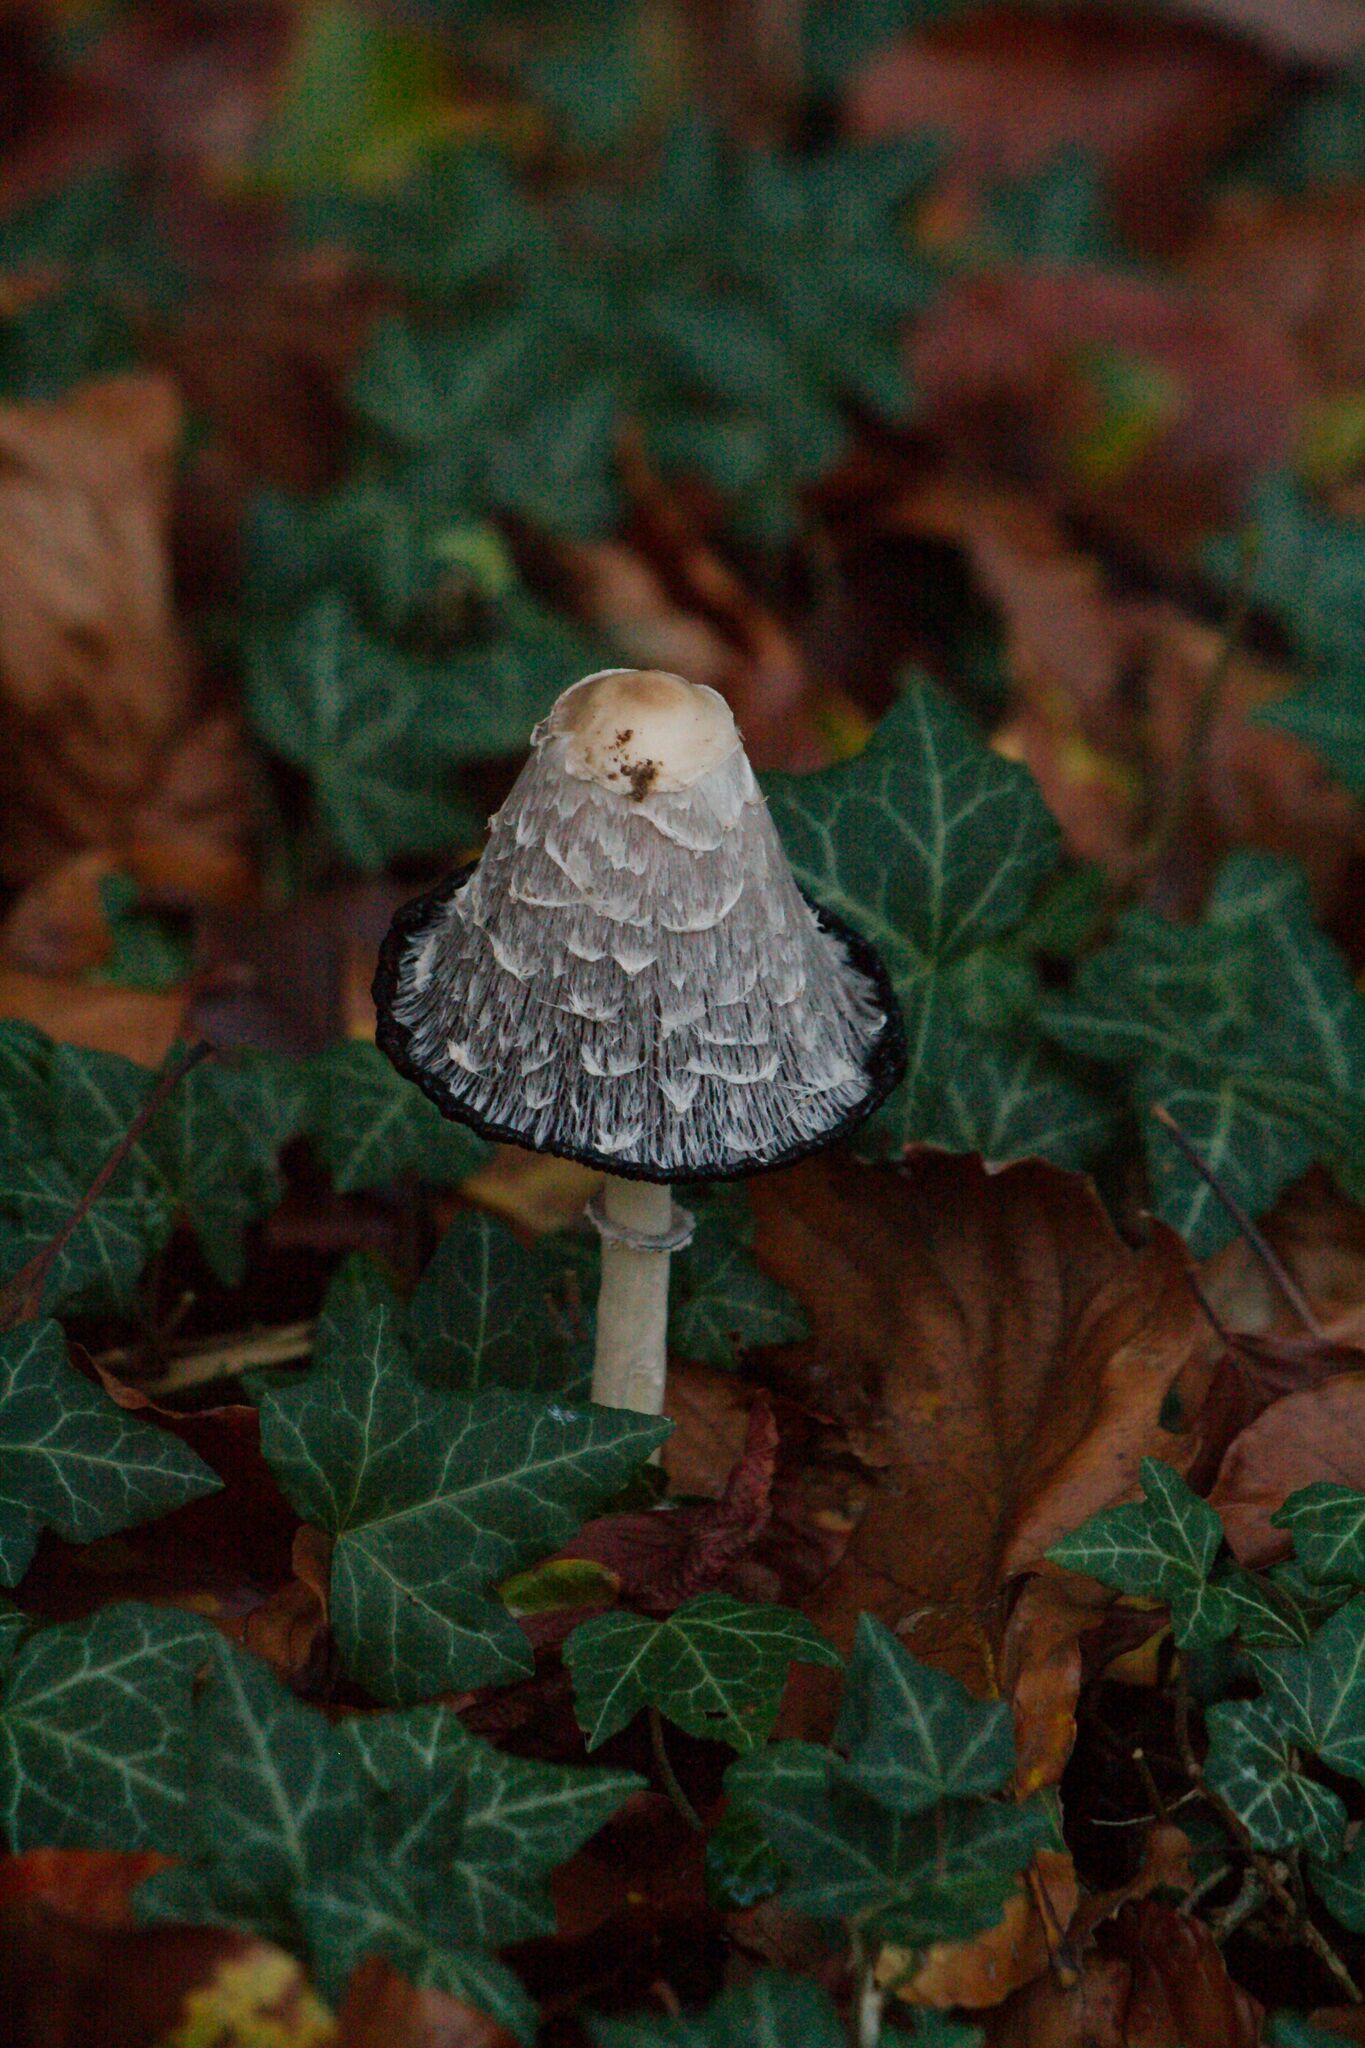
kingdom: Fungi
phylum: Basidiomycota
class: Agaricomycetes
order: Agaricales
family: Agaricaceae
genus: Coprinus
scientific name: Coprinus comatus
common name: Lawyer's wig
